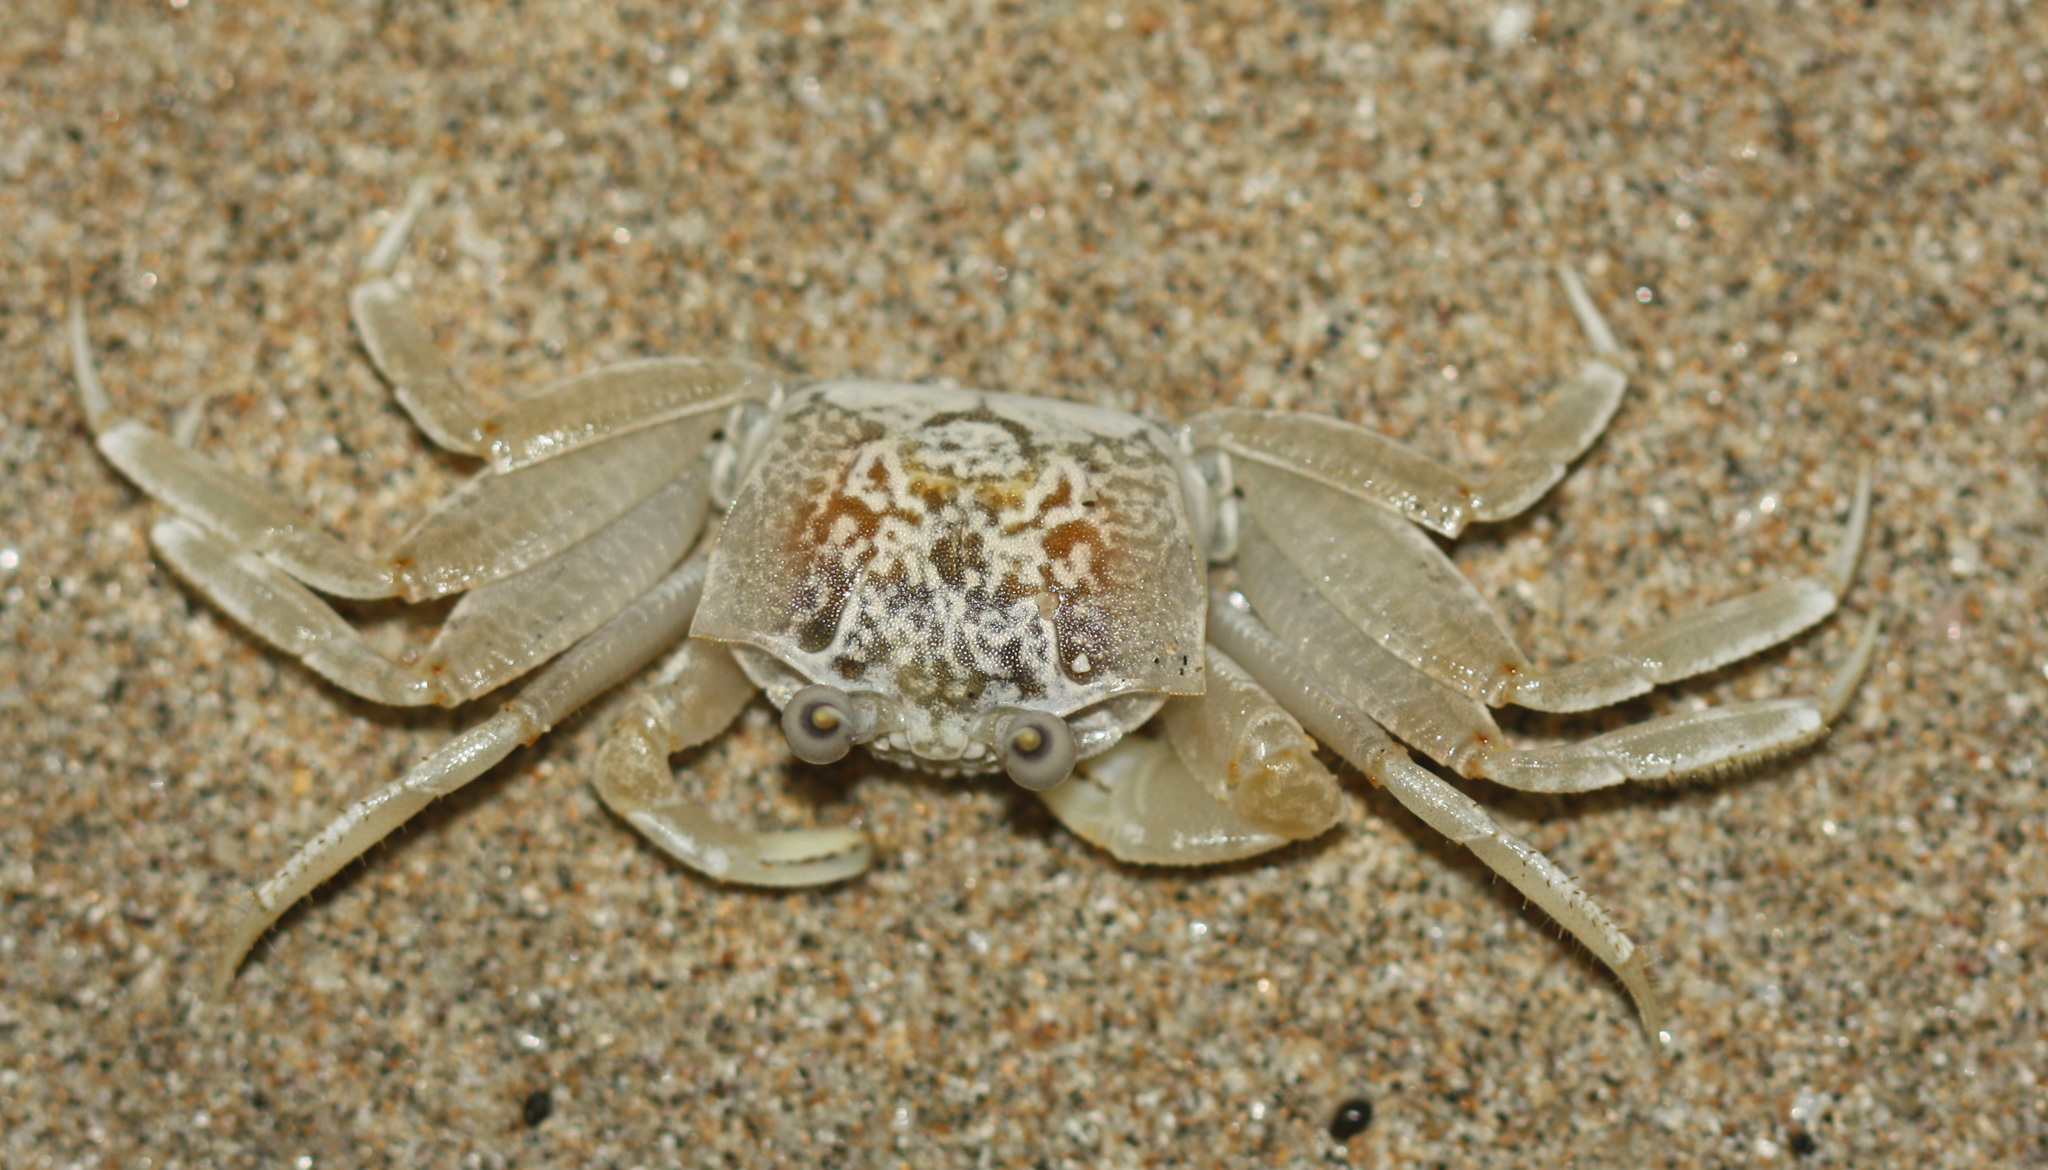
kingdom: Animalia
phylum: Arthropoda
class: Malacostraca
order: Decapoda
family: Ocypodidae
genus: Ocypode
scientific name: Ocypode gaudichaudii
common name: Pacific ghost crab
